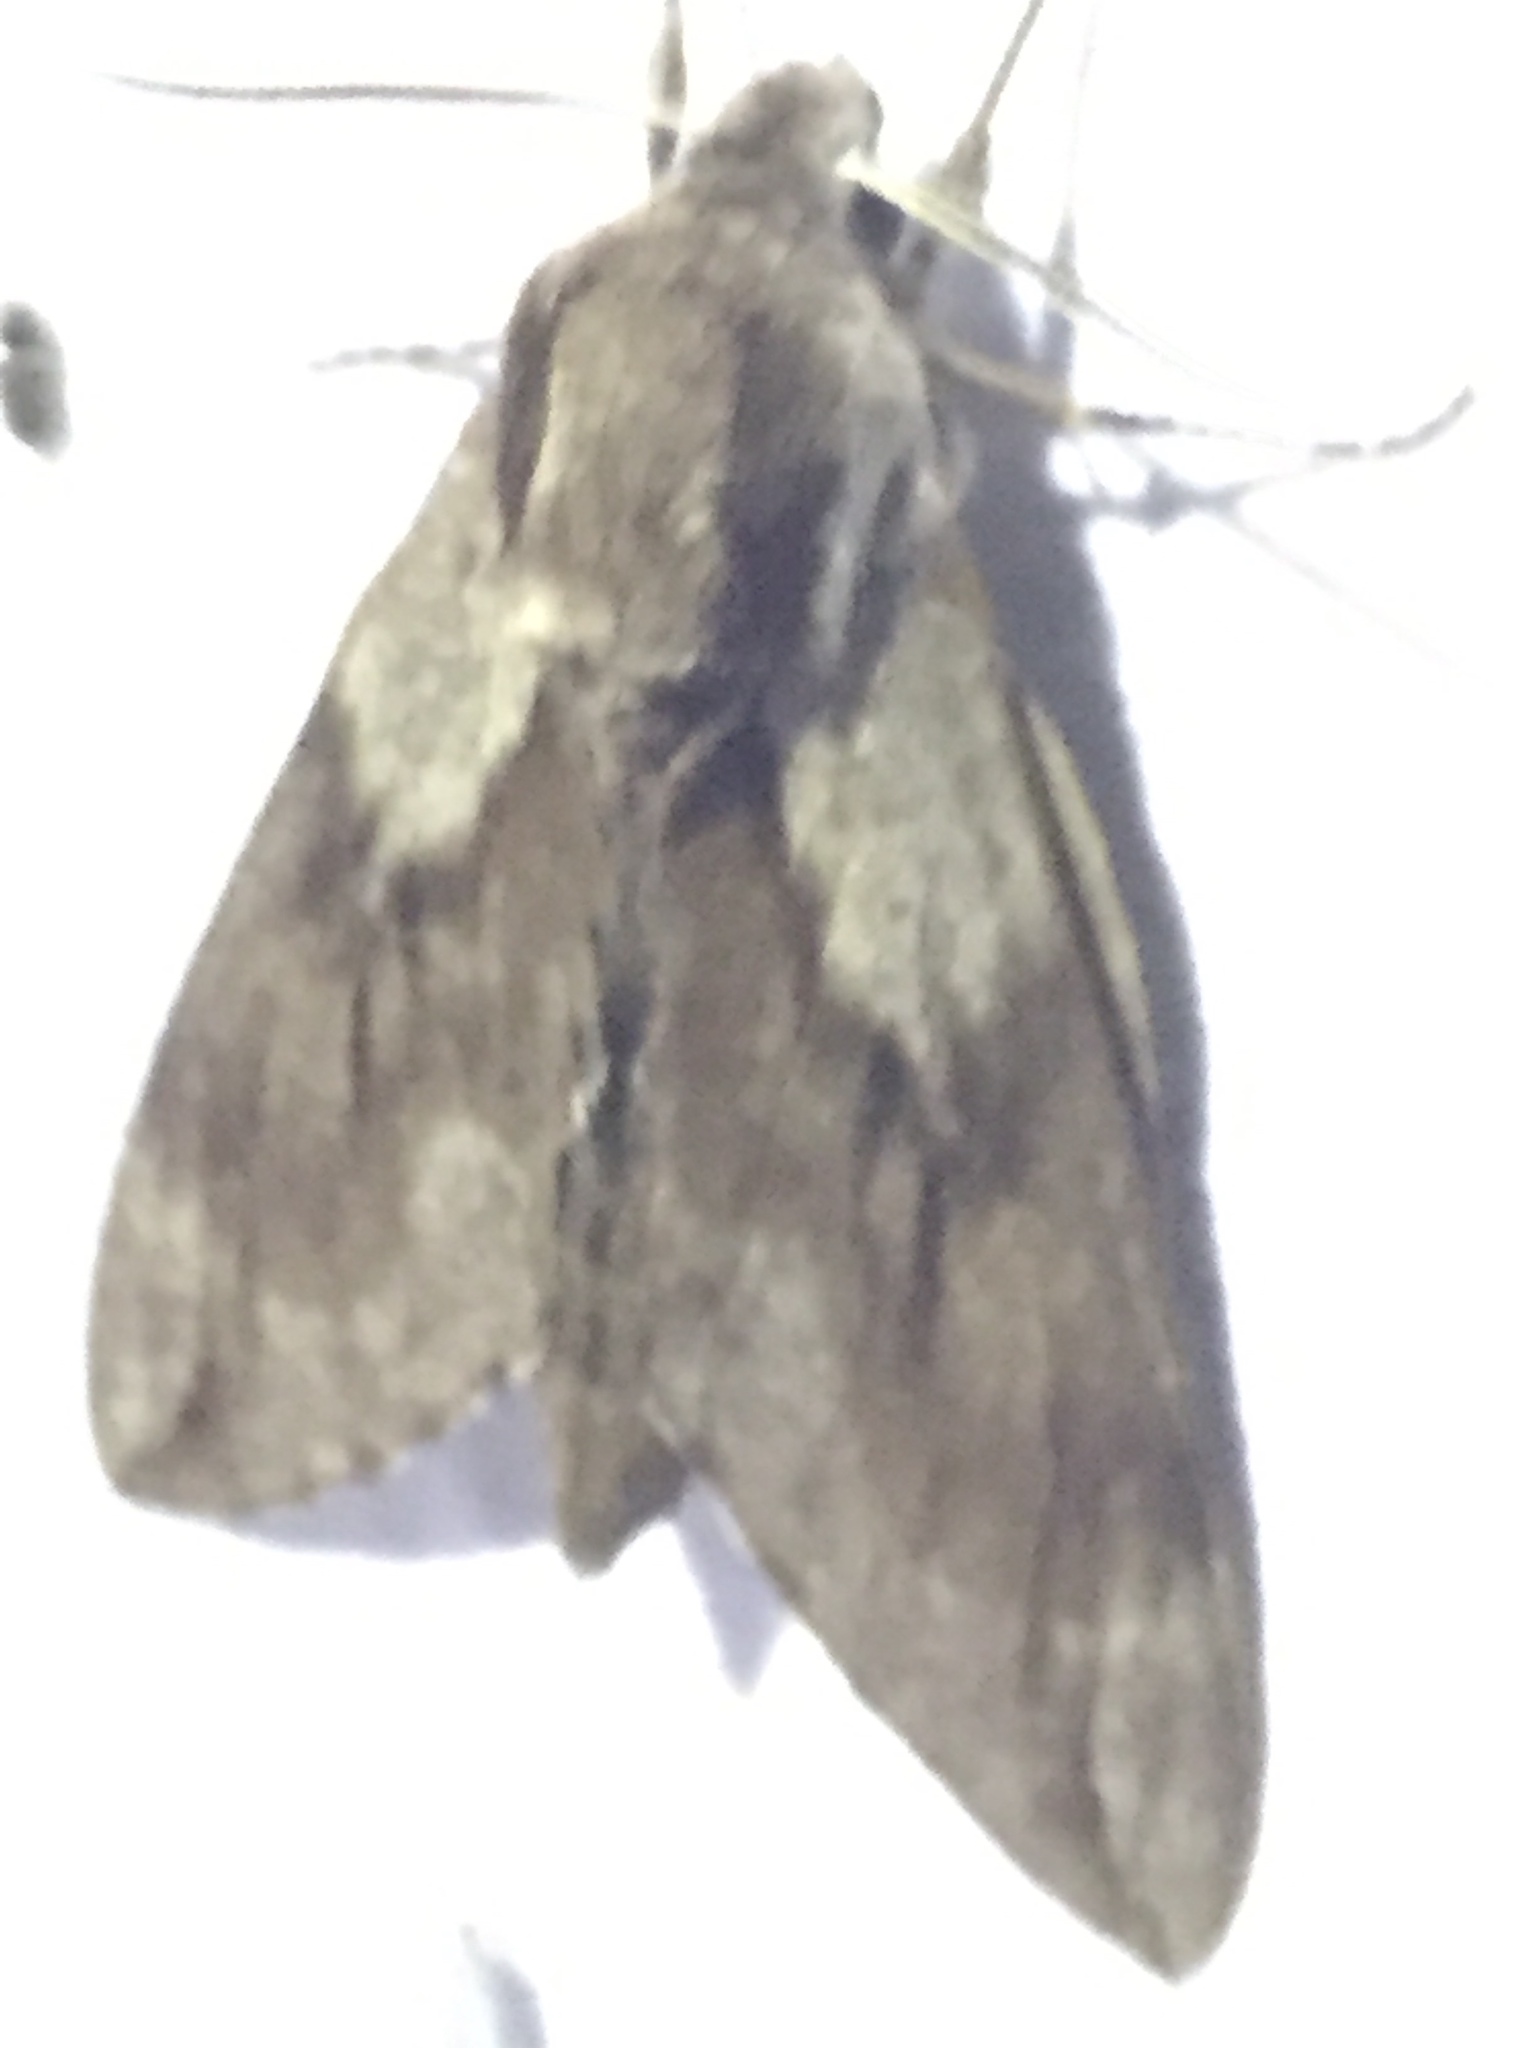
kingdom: Animalia
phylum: Arthropoda
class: Insecta
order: Lepidoptera
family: Sphingidae
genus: Sphinx
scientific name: Sphinx pinastri
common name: Pine hawk-moth
